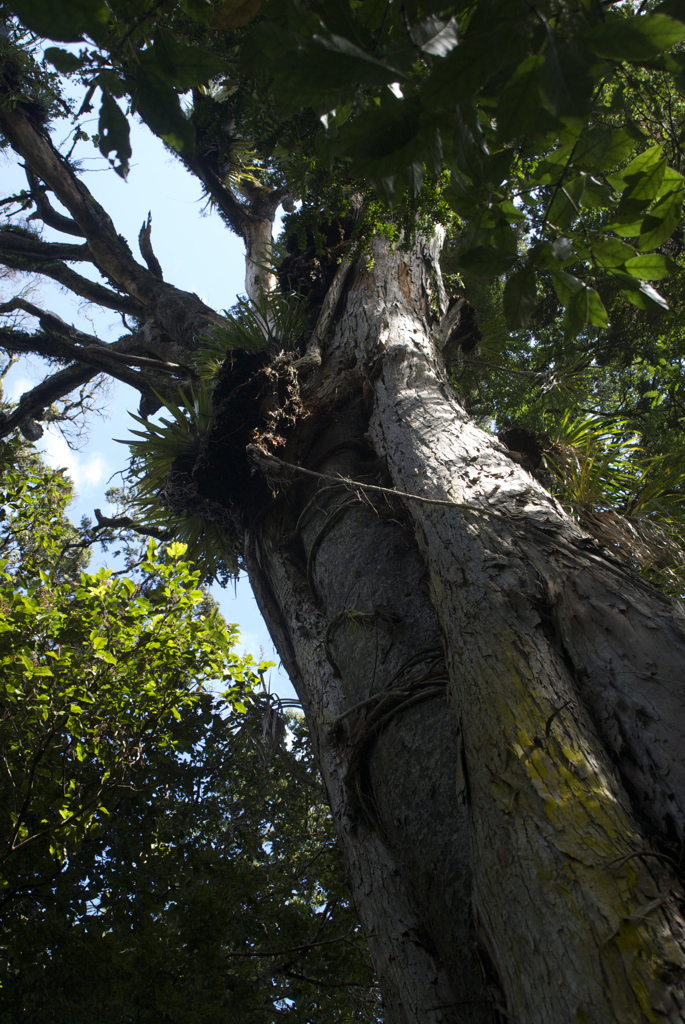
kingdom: Plantae
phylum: Tracheophyta
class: Magnoliopsida
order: Myrtales
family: Myrtaceae
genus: Metrosideros
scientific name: Metrosideros robusta
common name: Northern rata
